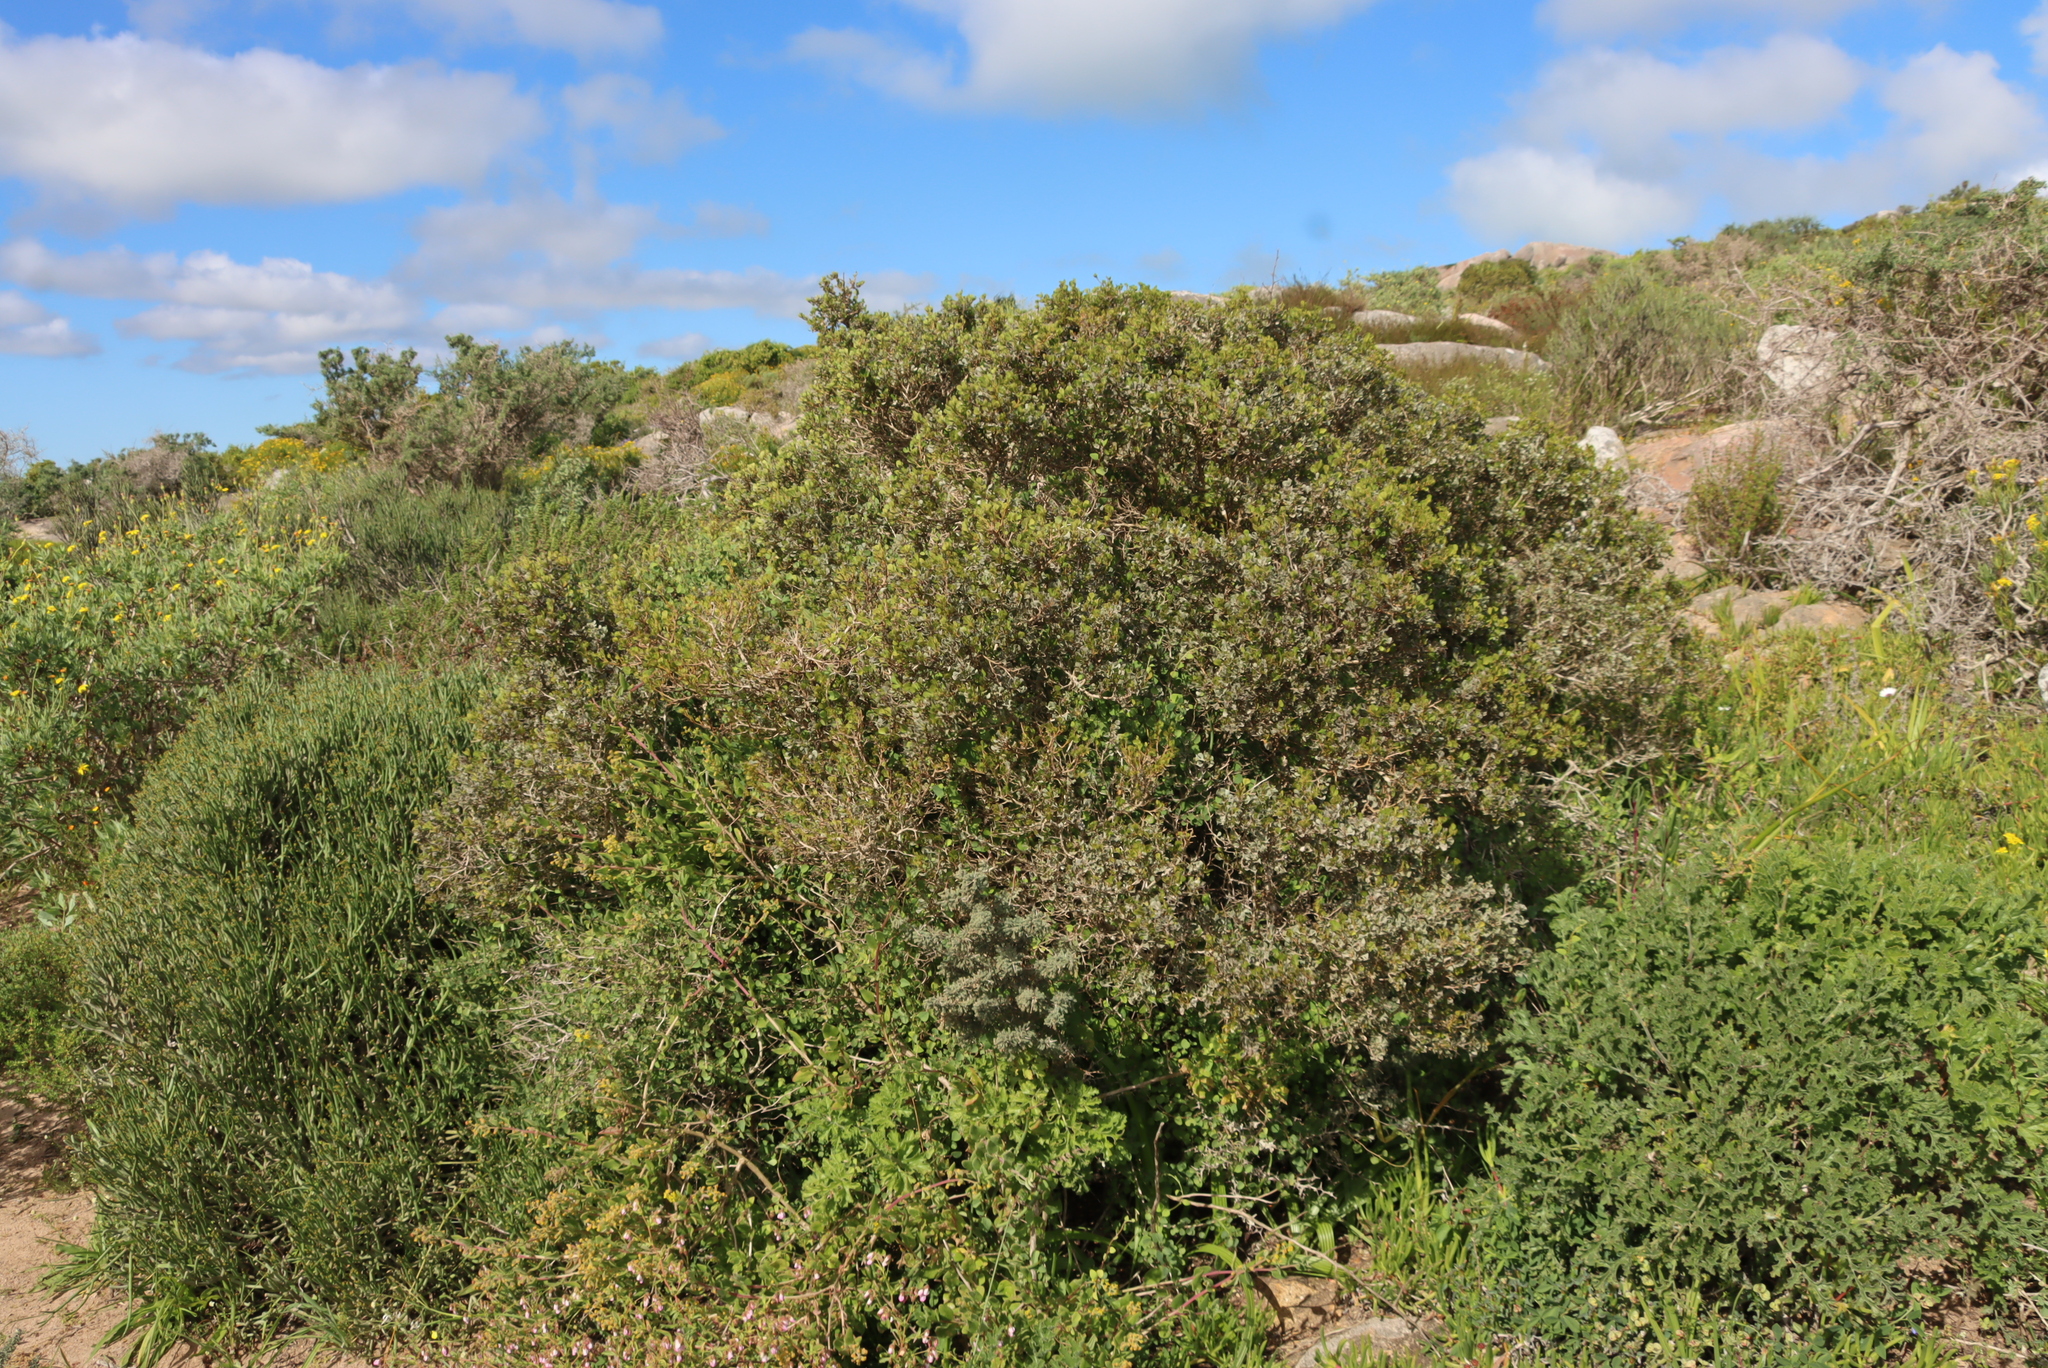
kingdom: Plantae
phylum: Tracheophyta
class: Magnoliopsida
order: Sapindales
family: Anacardiaceae
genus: Searsia
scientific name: Searsia glauca
